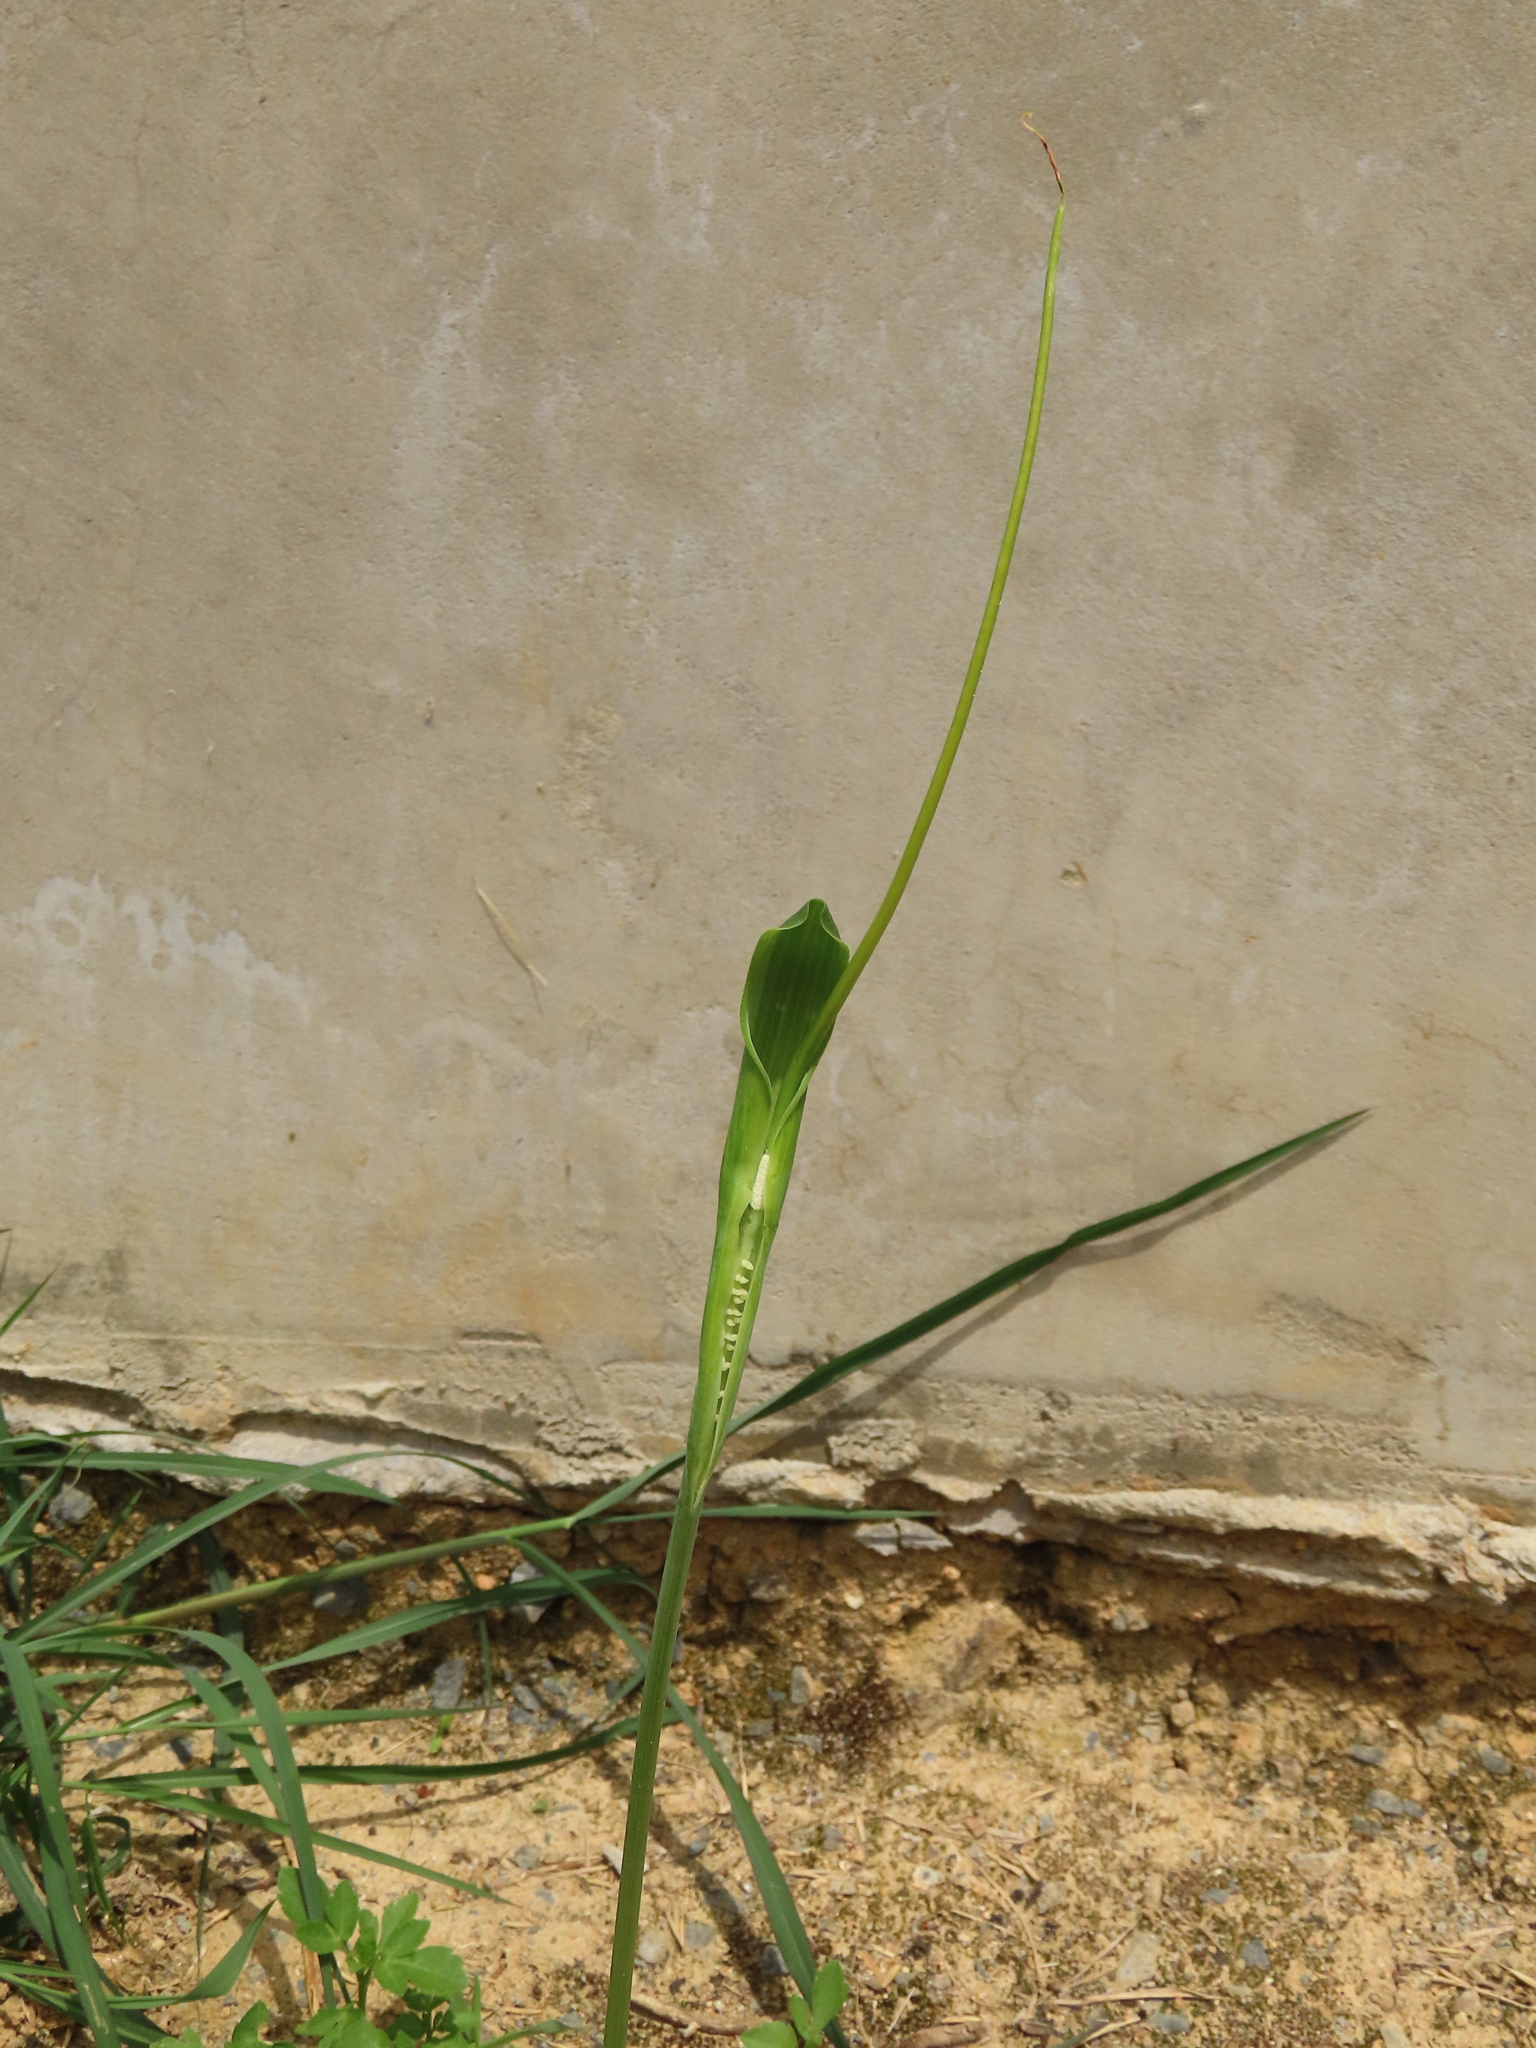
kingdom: Plantae
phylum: Tracheophyta
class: Liliopsida
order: Alismatales
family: Araceae
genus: Pinellia
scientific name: Pinellia ternata
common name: Pinellia
